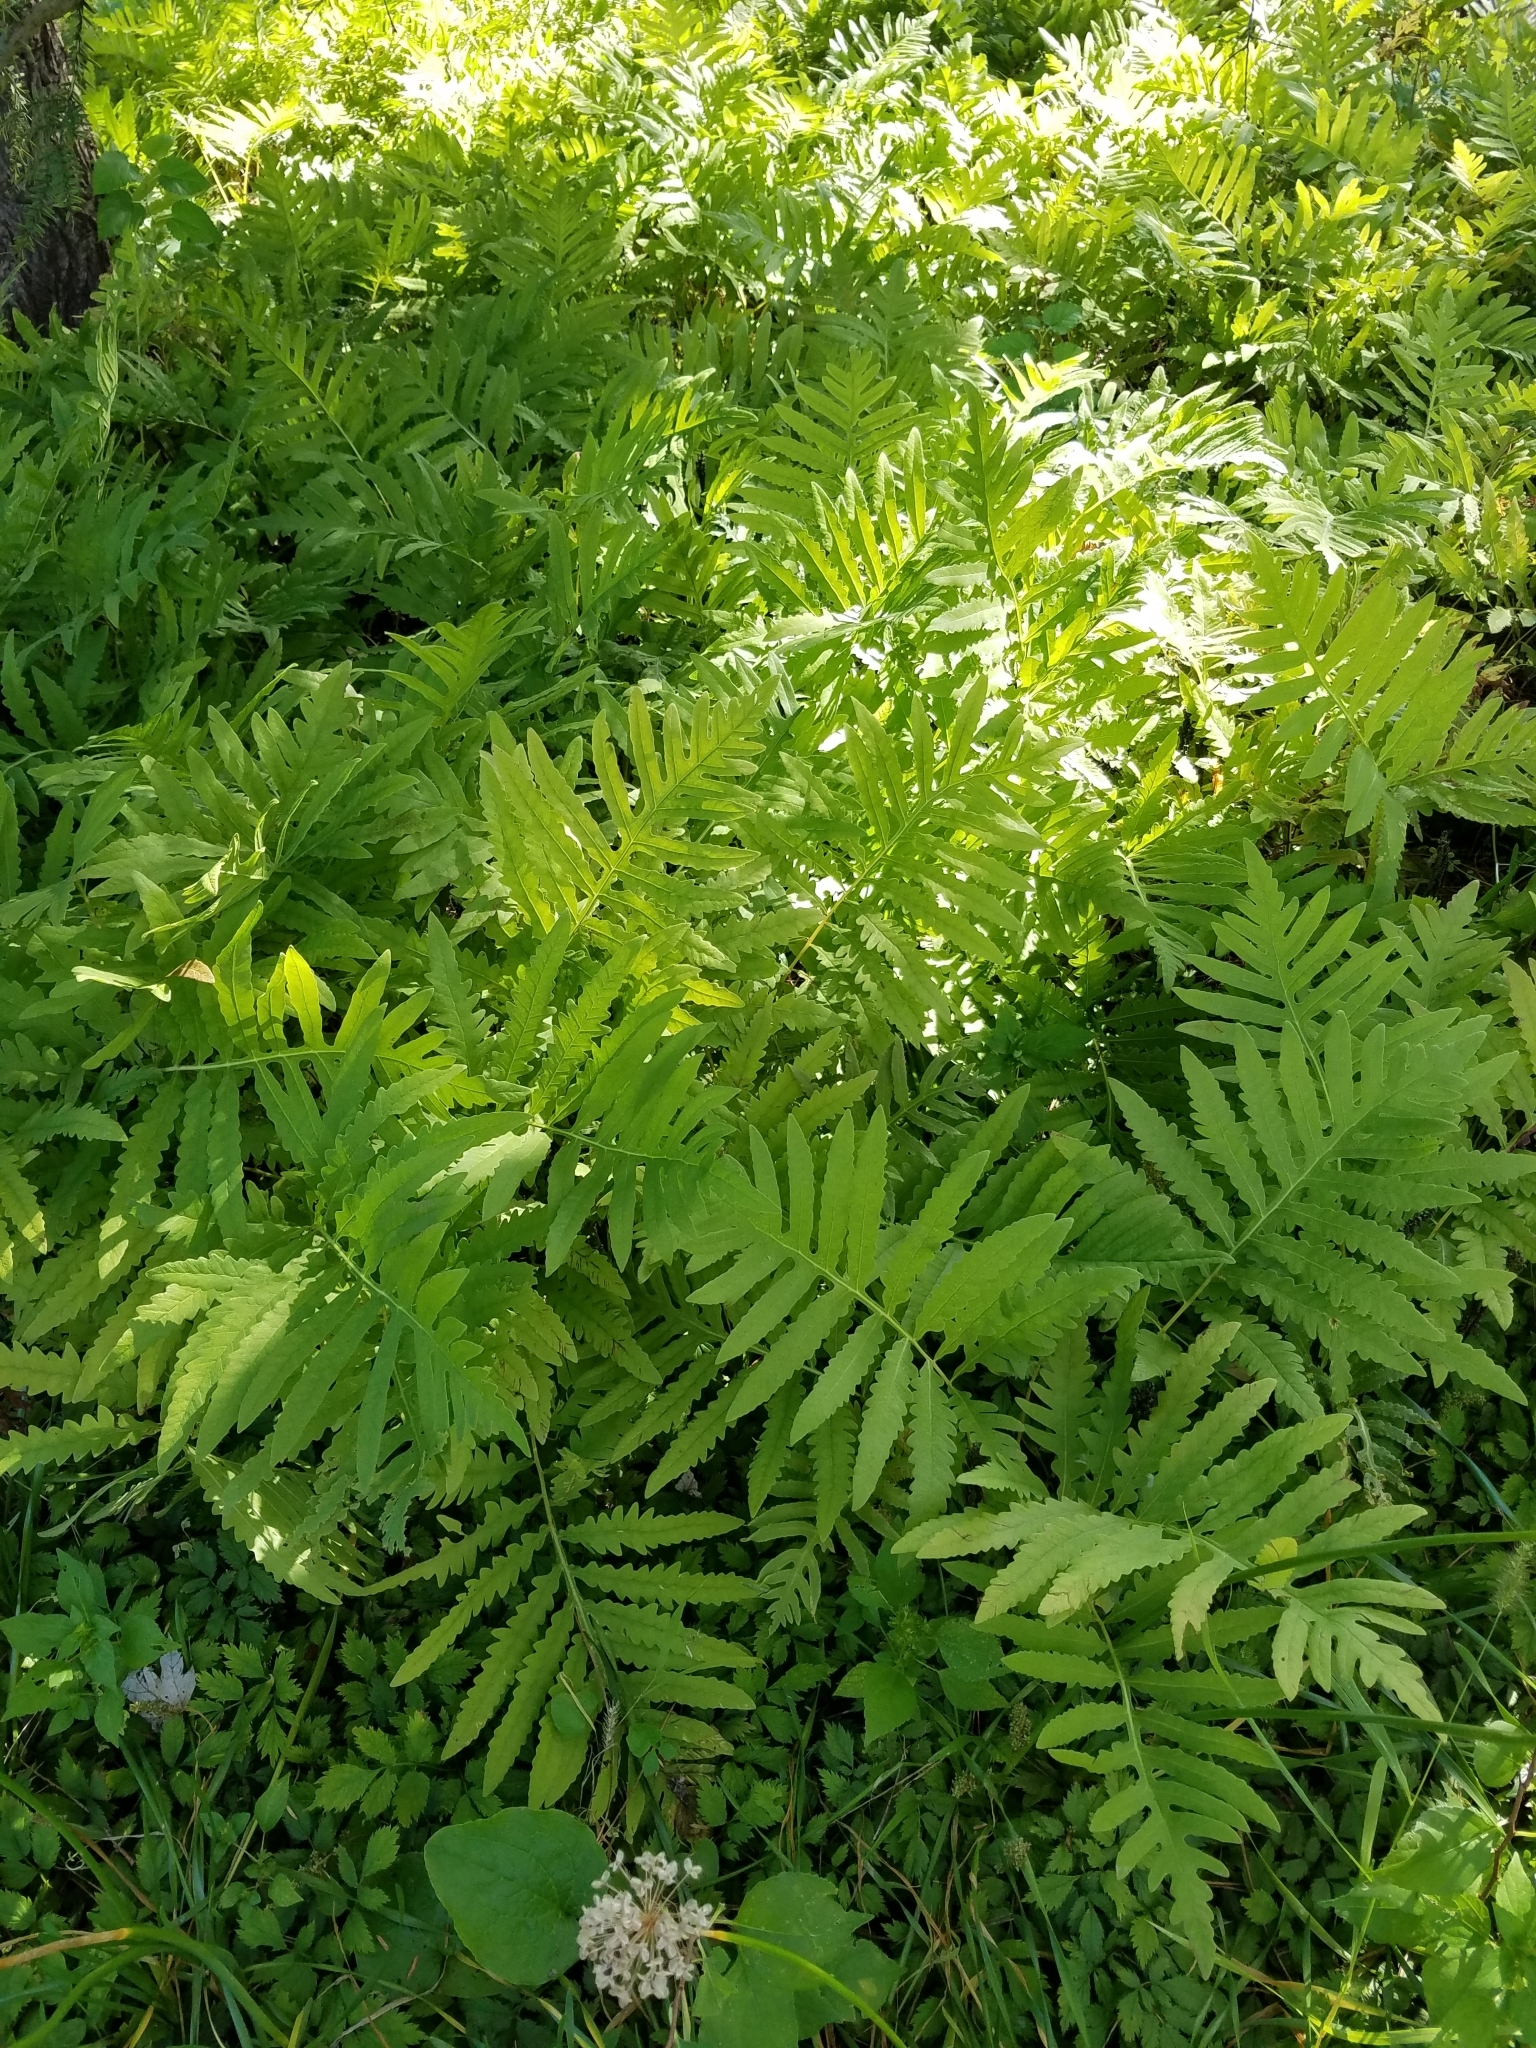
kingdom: Plantae
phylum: Tracheophyta
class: Polypodiopsida
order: Polypodiales
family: Onocleaceae
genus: Onoclea
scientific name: Onoclea sensibilis
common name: Sensitive fern
